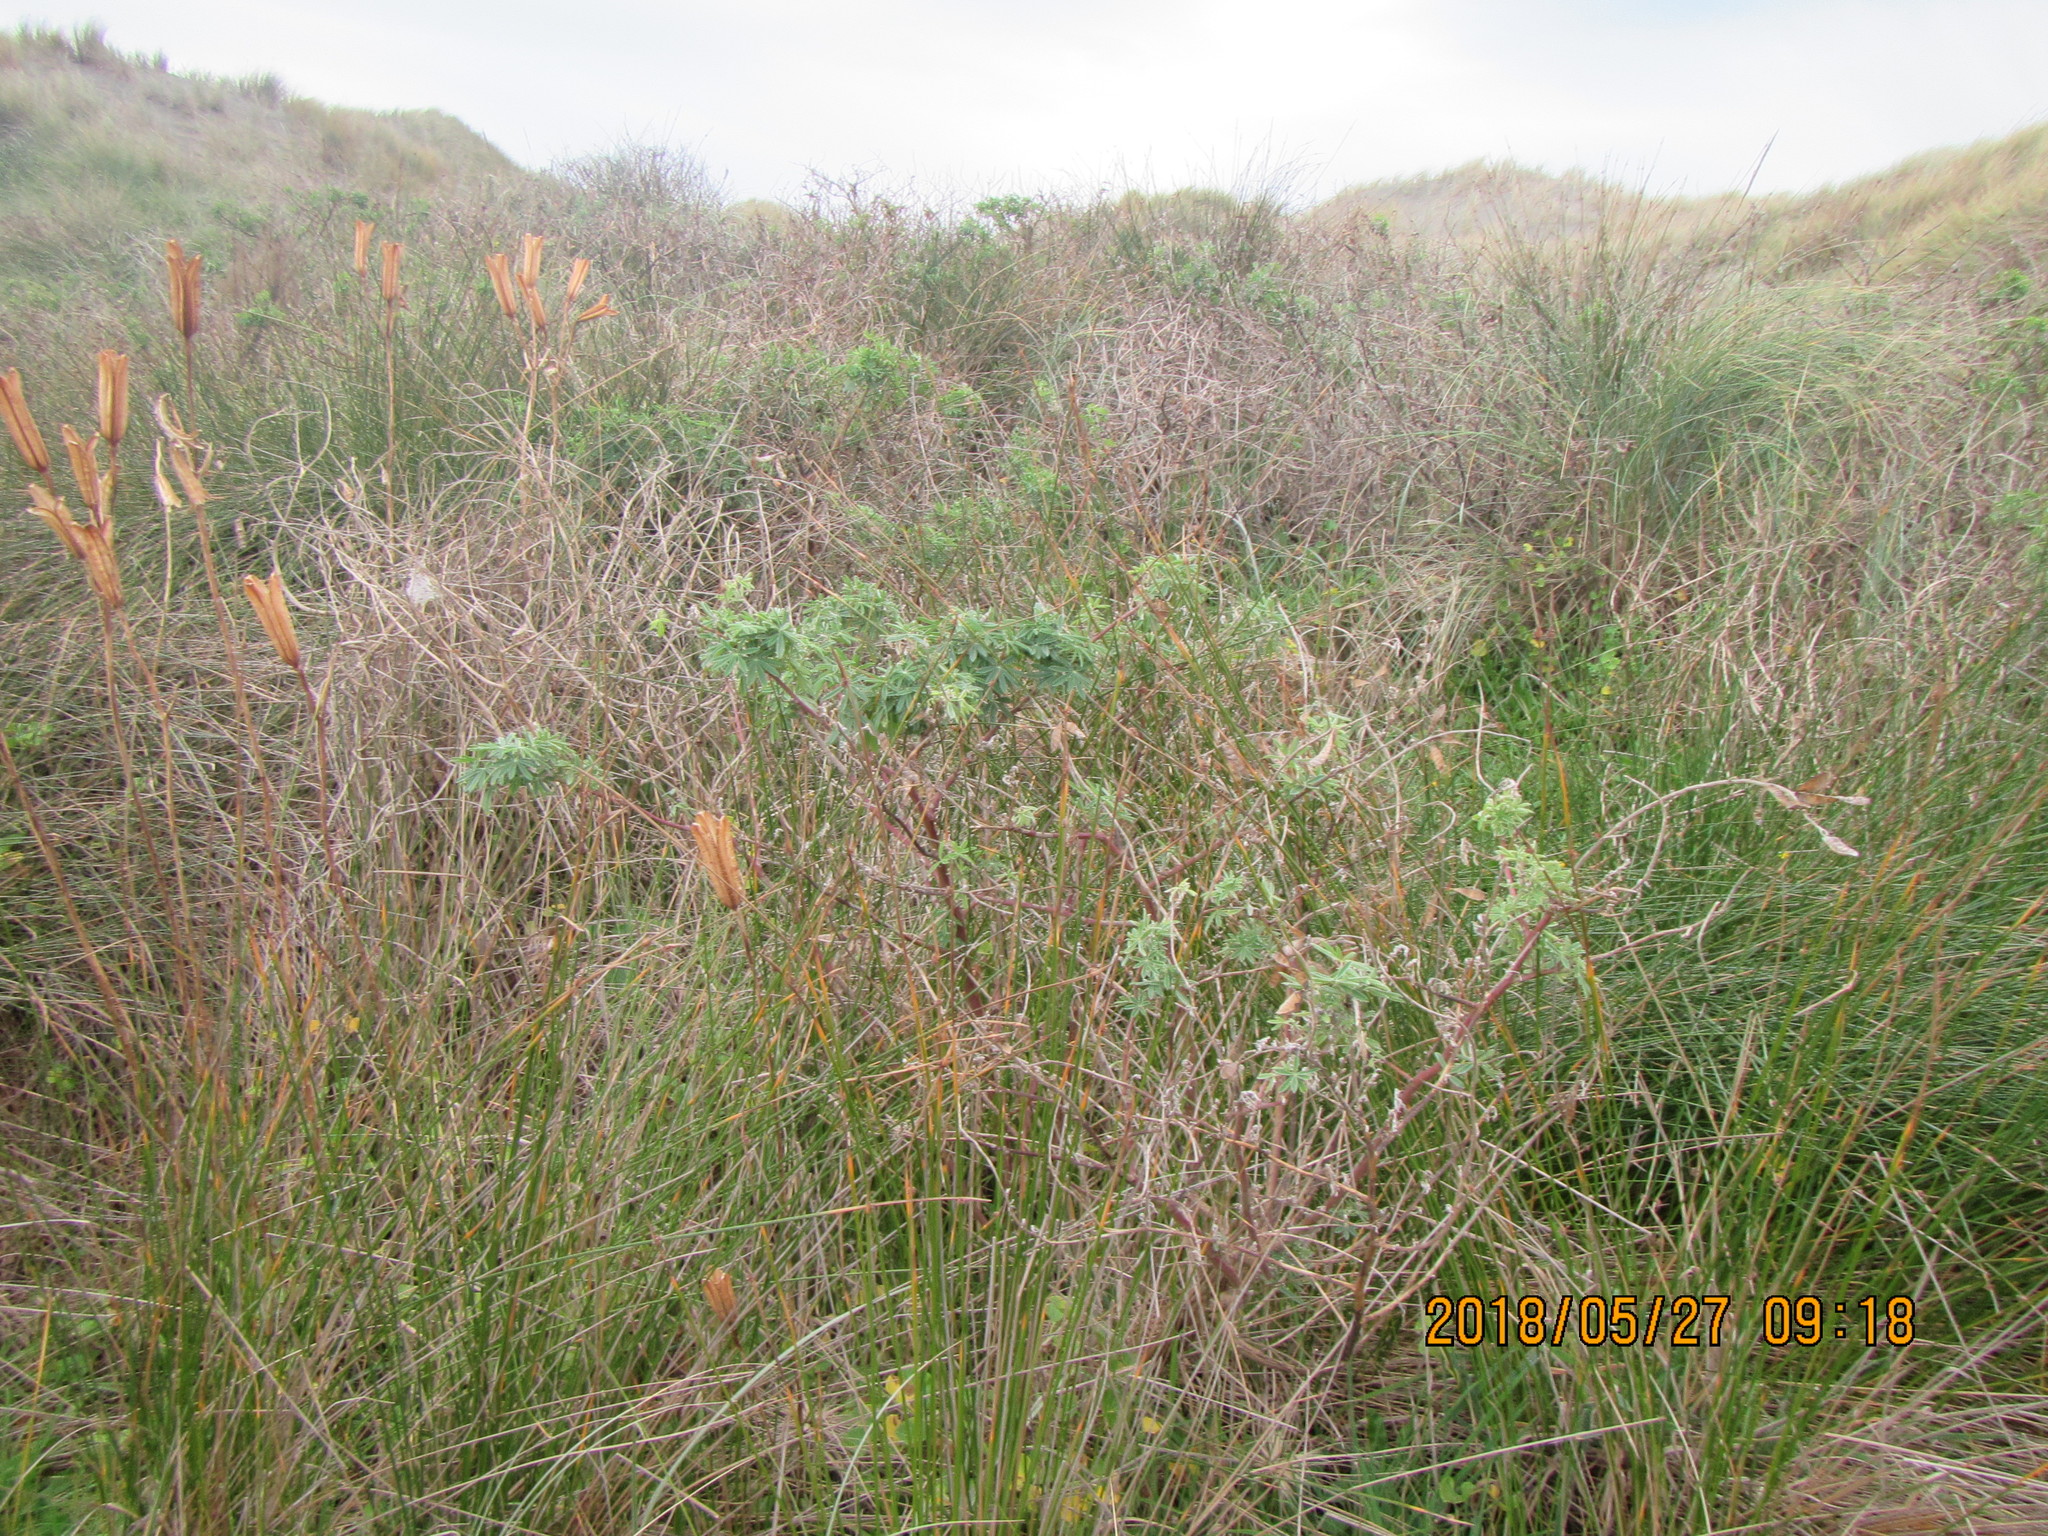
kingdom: Plantae
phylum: Tracheophyta
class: Magnoliopsida
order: Fabales
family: Fabaceae
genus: Lupinus
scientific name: Lupinus arboreus
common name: Yellow bush lupine
